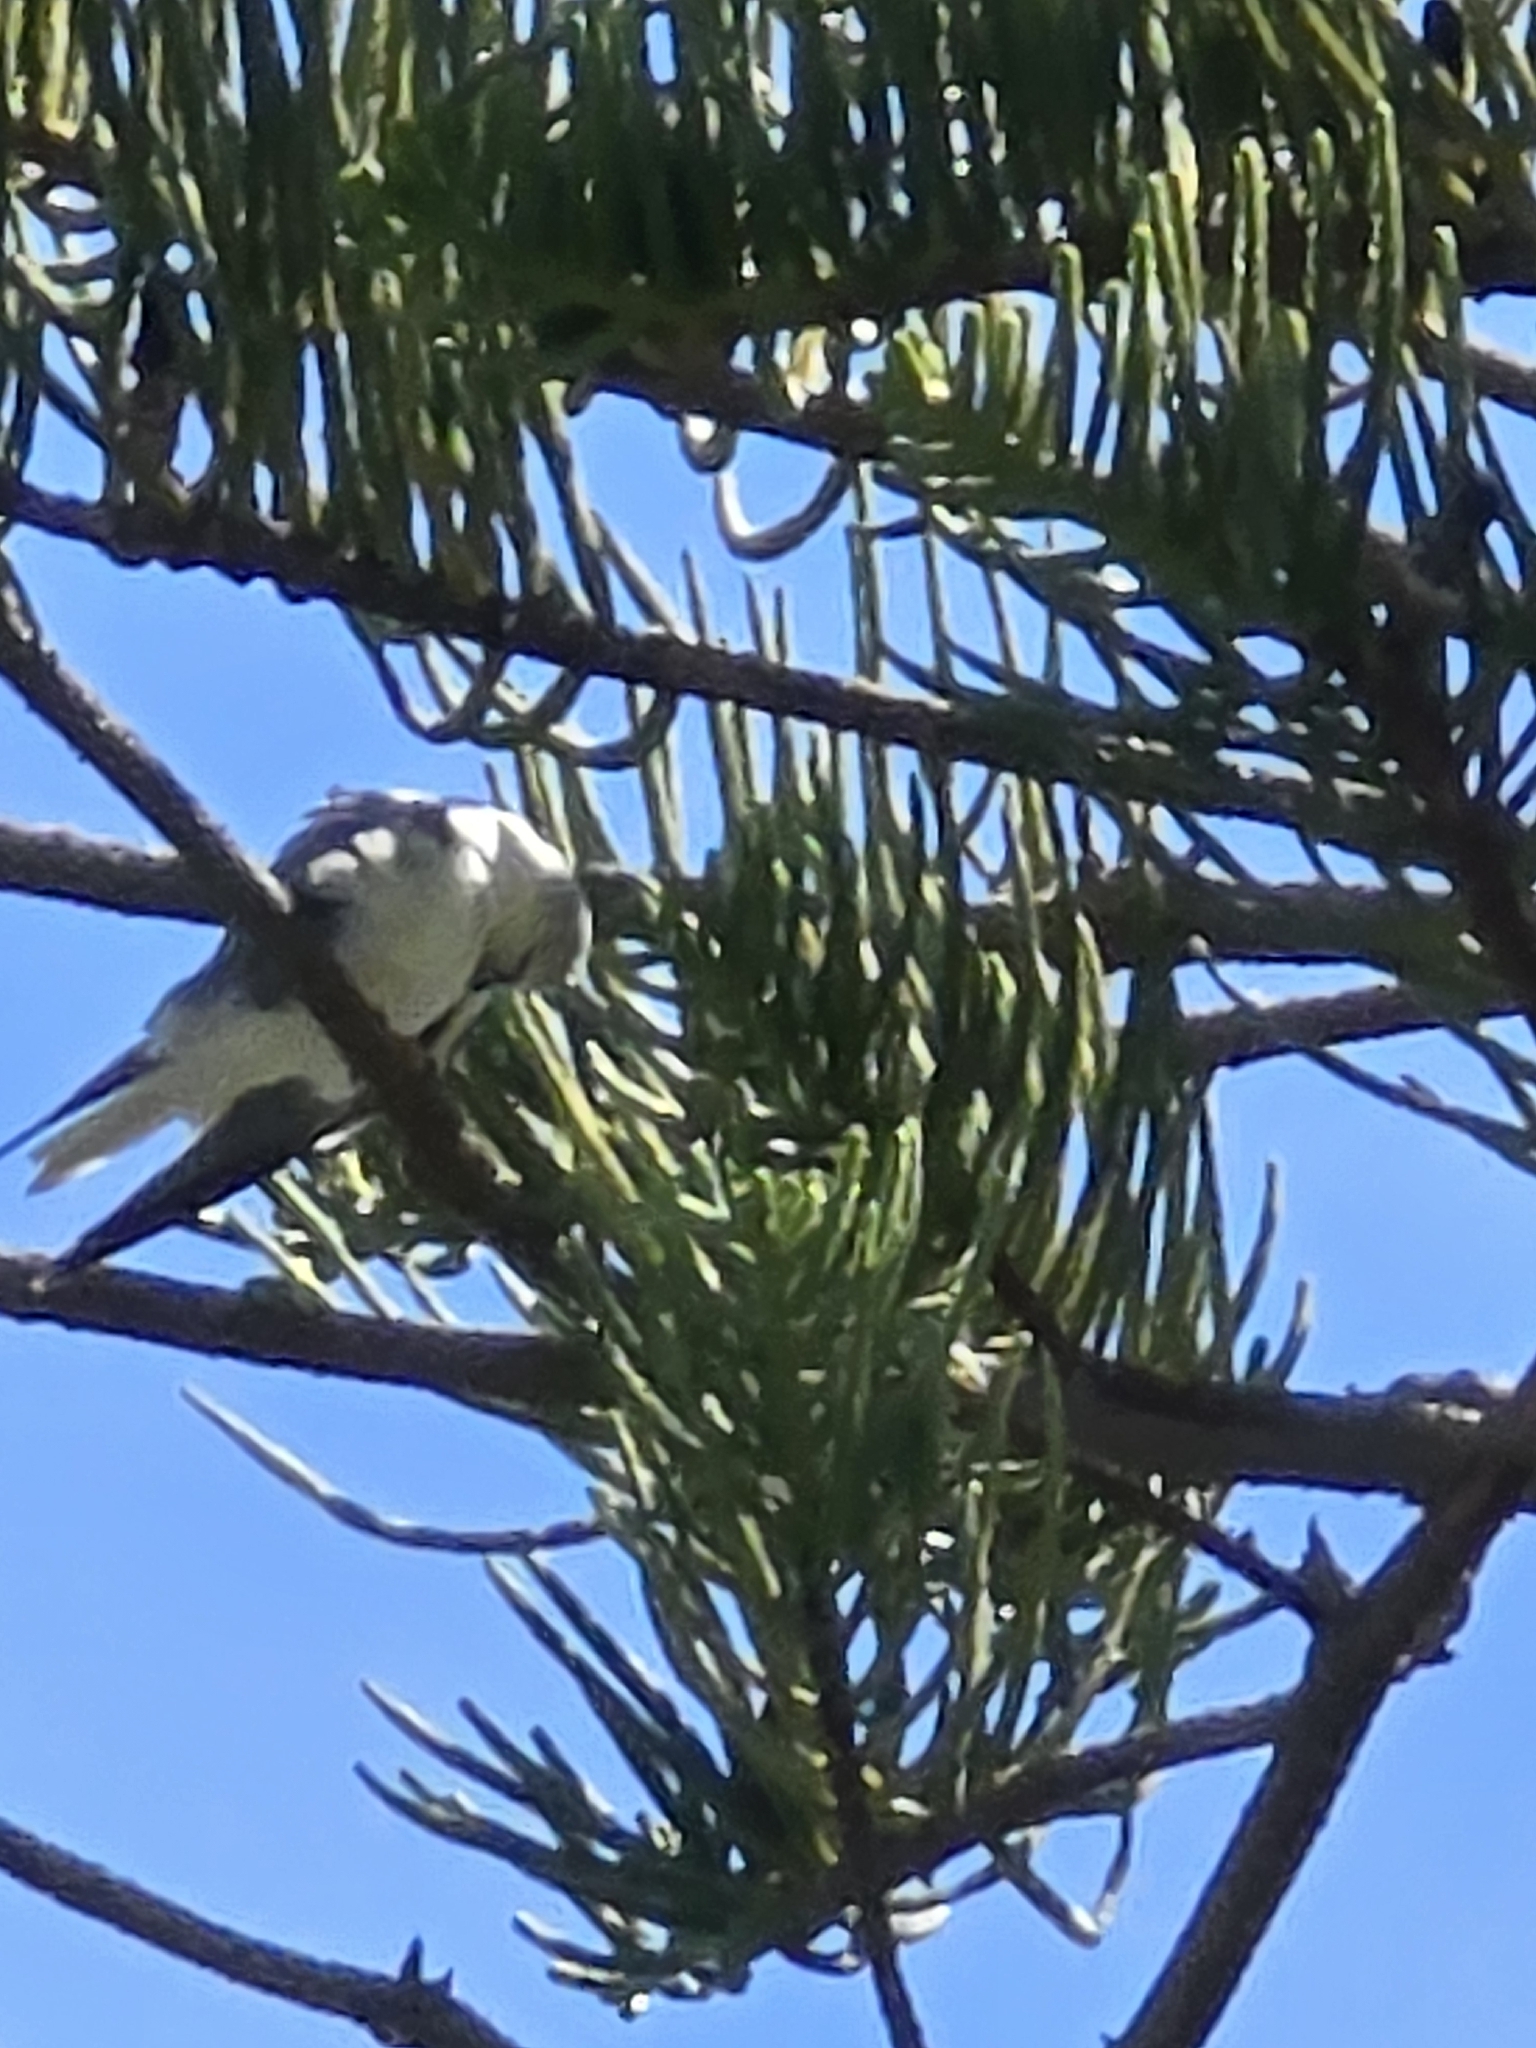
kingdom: Animalia
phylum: Chordata
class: Aves
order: Accipitriformes
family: Accipitridae
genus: Elanus
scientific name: Elanus axillaris
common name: Black-shouldered kite
